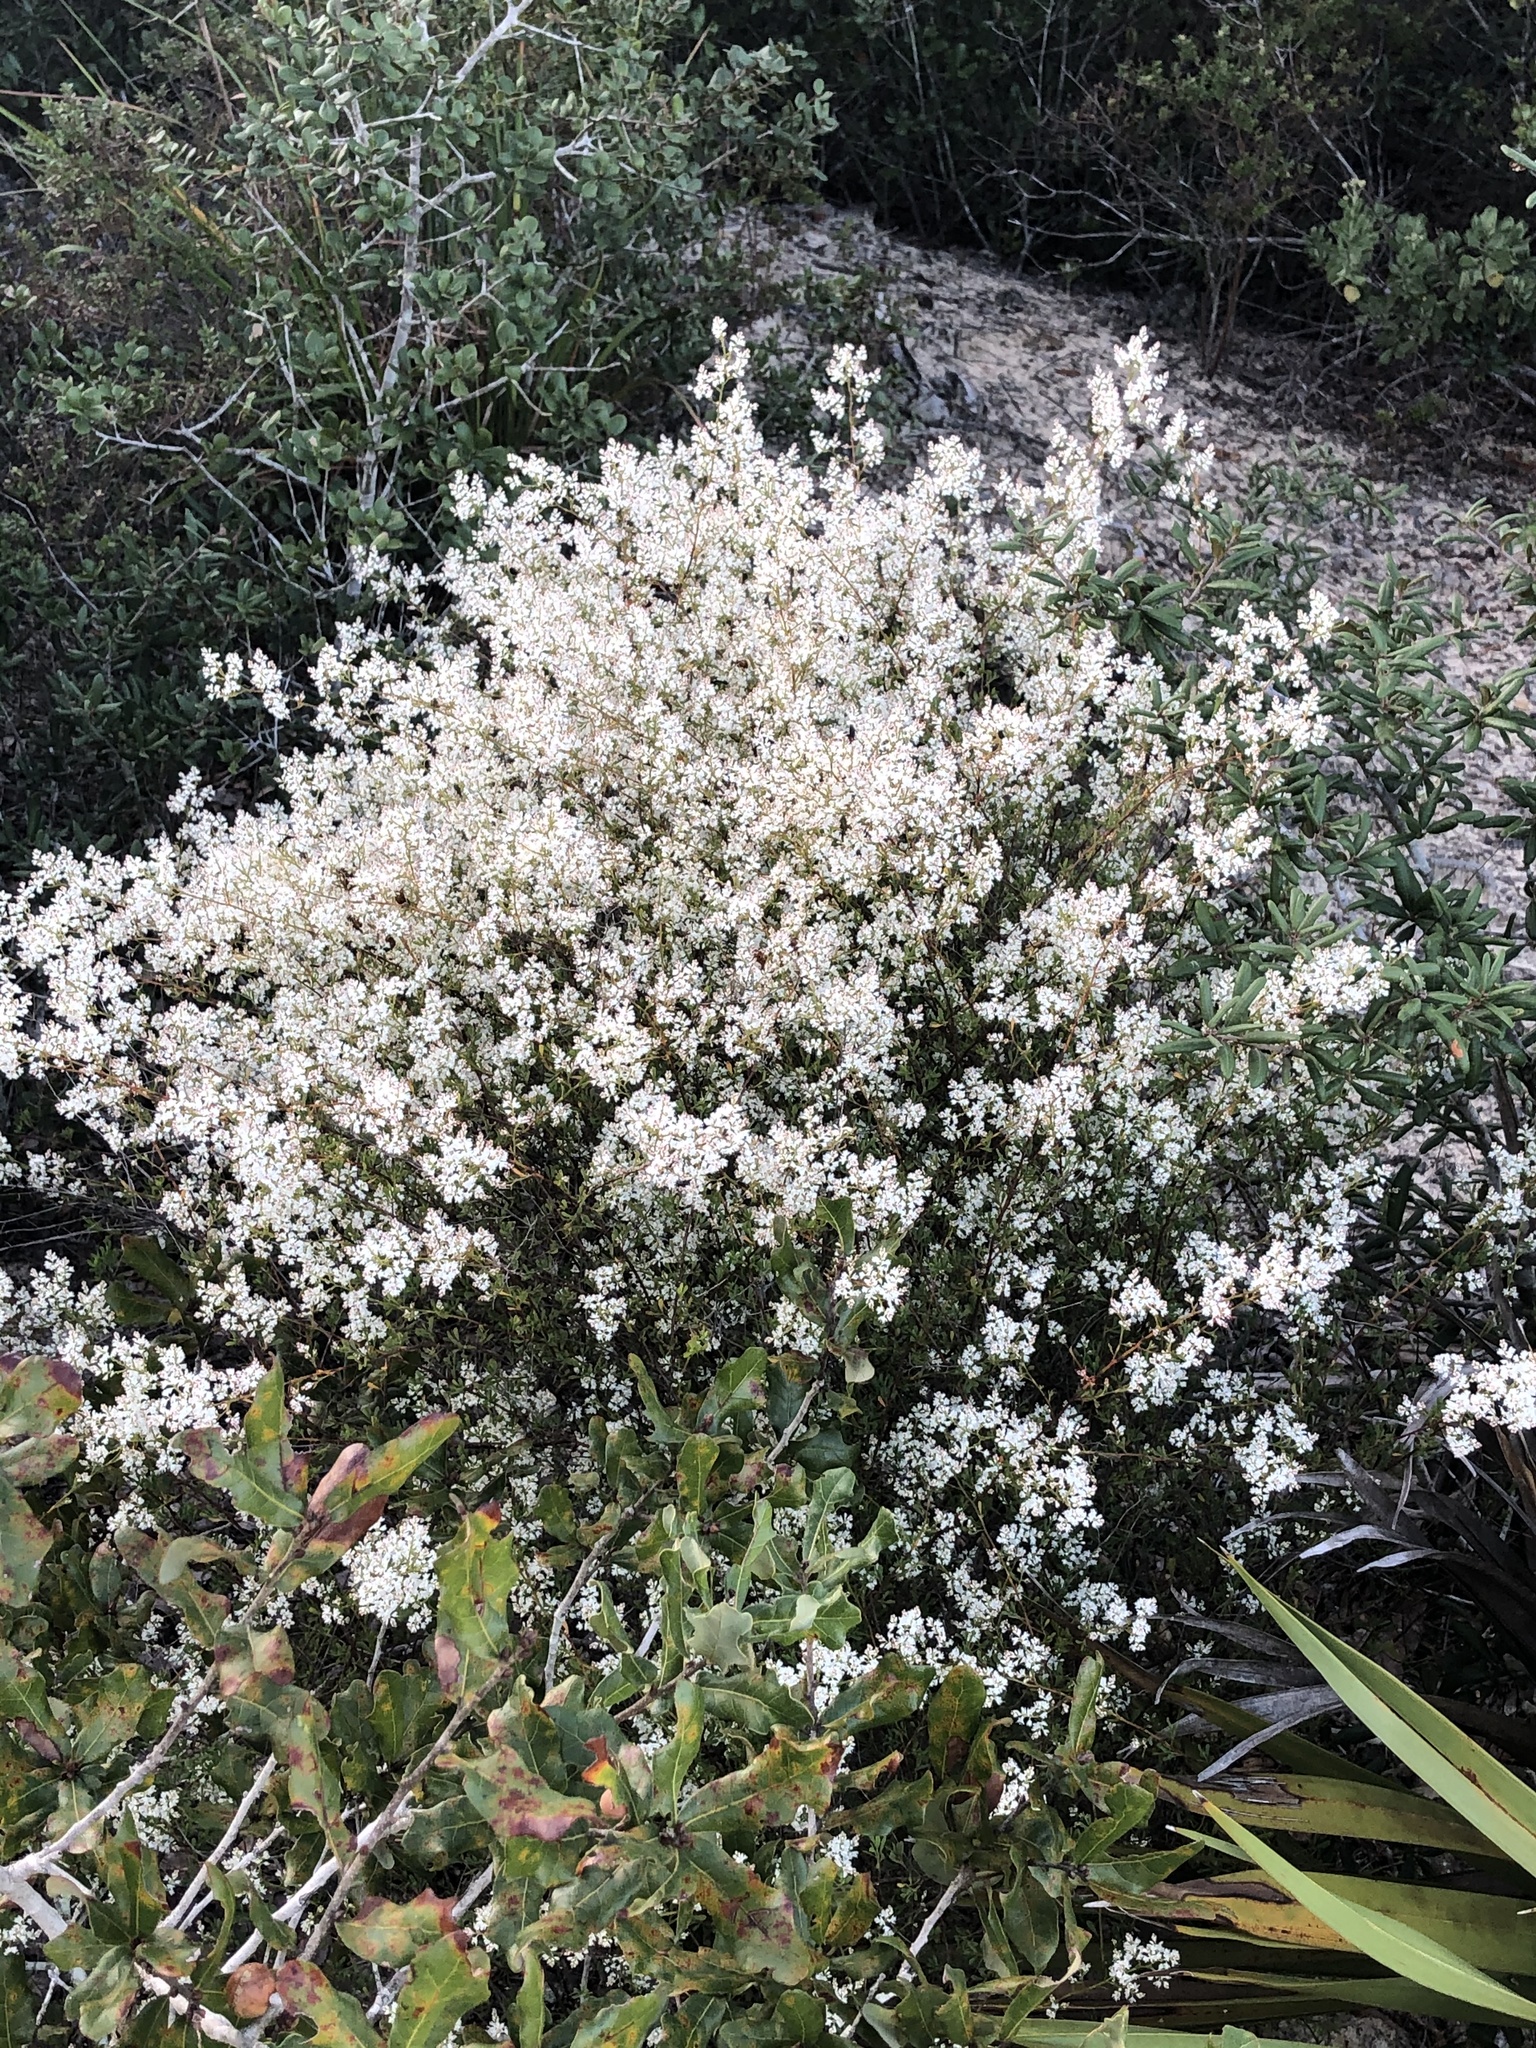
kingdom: Plantae
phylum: Tracheophyta
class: Magnoliopsida
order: Caryophyllales
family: Polygonaceae
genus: Polygonella
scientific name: Polygonella polygama
